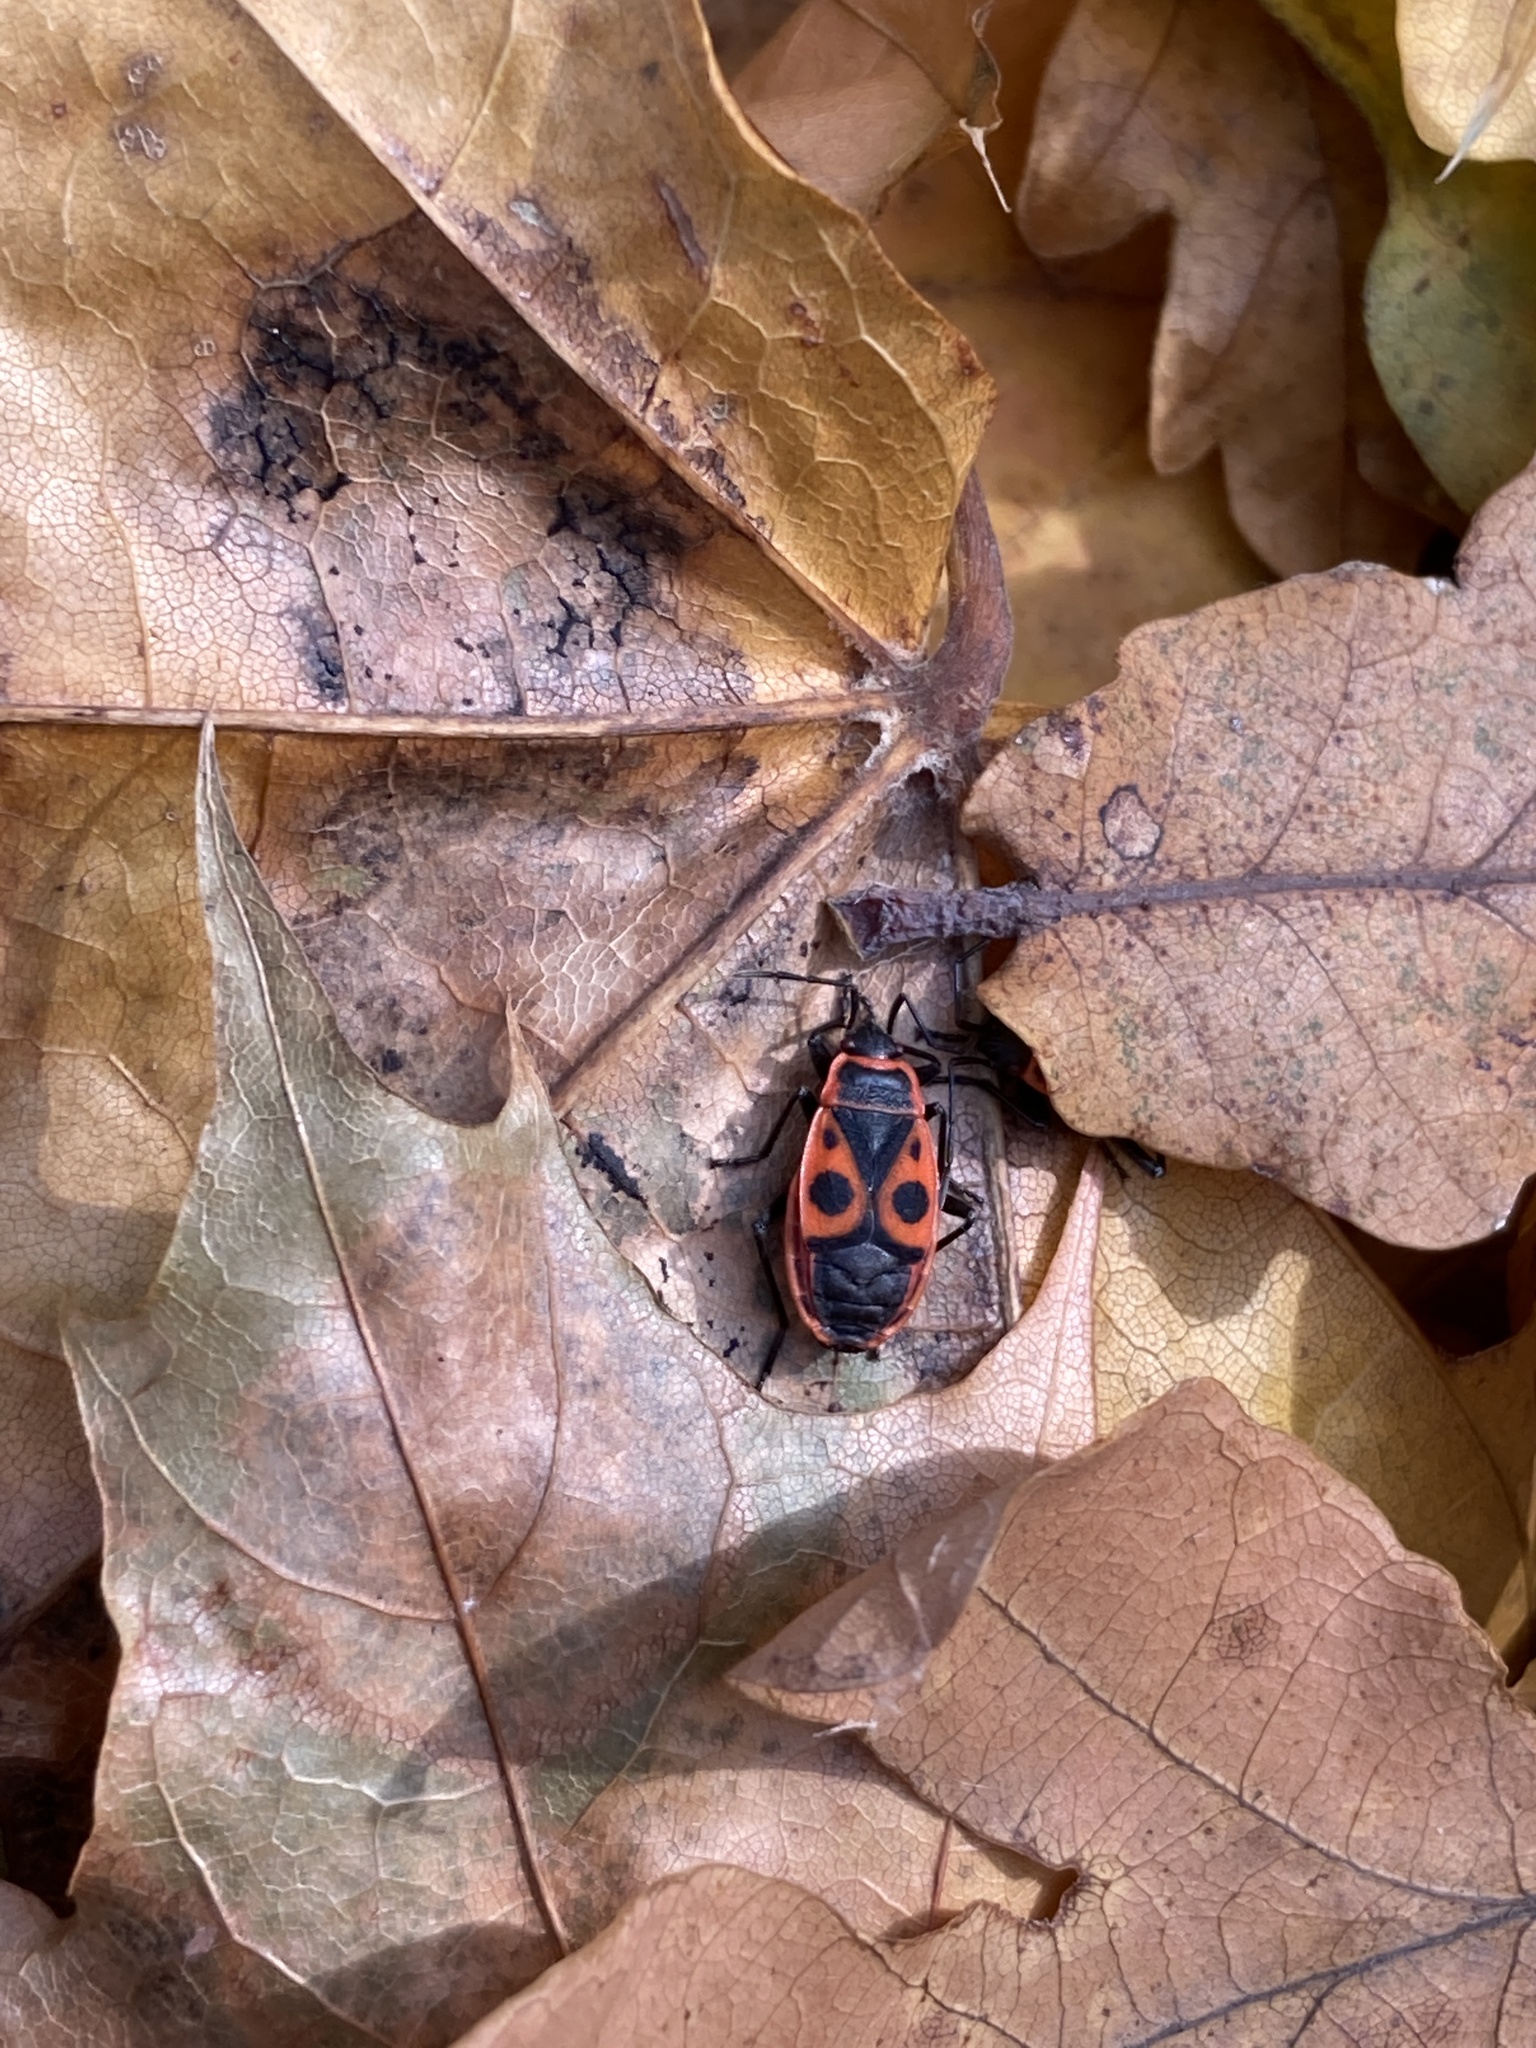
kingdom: Animalia
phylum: Arthropoda
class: Insecta
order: Hemiptera
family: Pyrrhocoridae
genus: Pyrrhocoris
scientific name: Pyrrhocoris apterus
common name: Firebug
